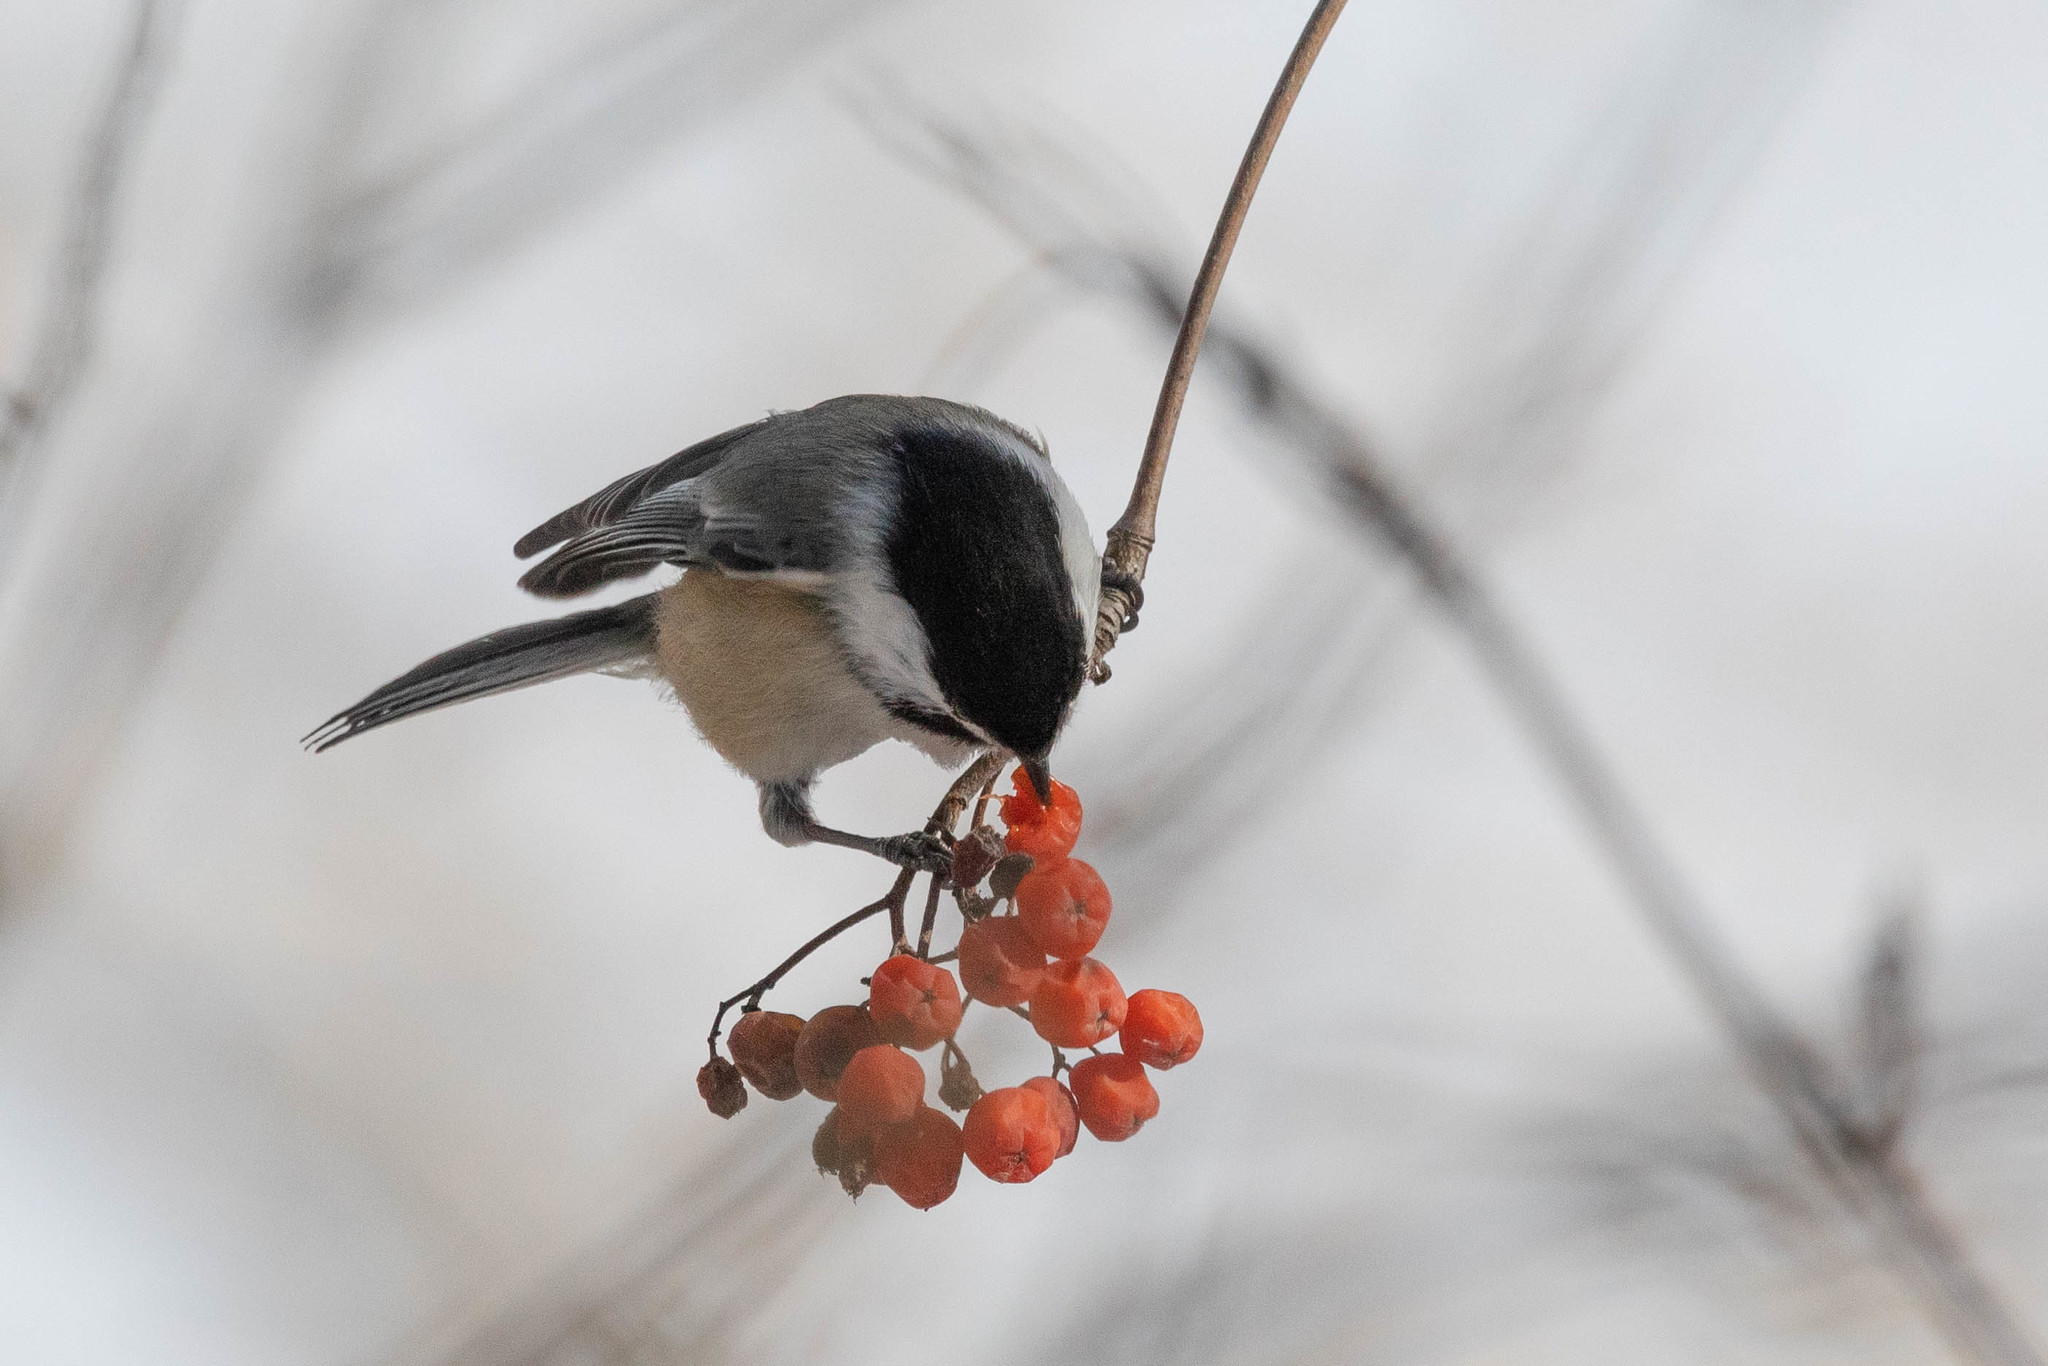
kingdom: Animalia
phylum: Chordata
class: Aves
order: Passeriformes
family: Paridae
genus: Poecile
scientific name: Poecile atricapillus
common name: Black-capped chickadee
